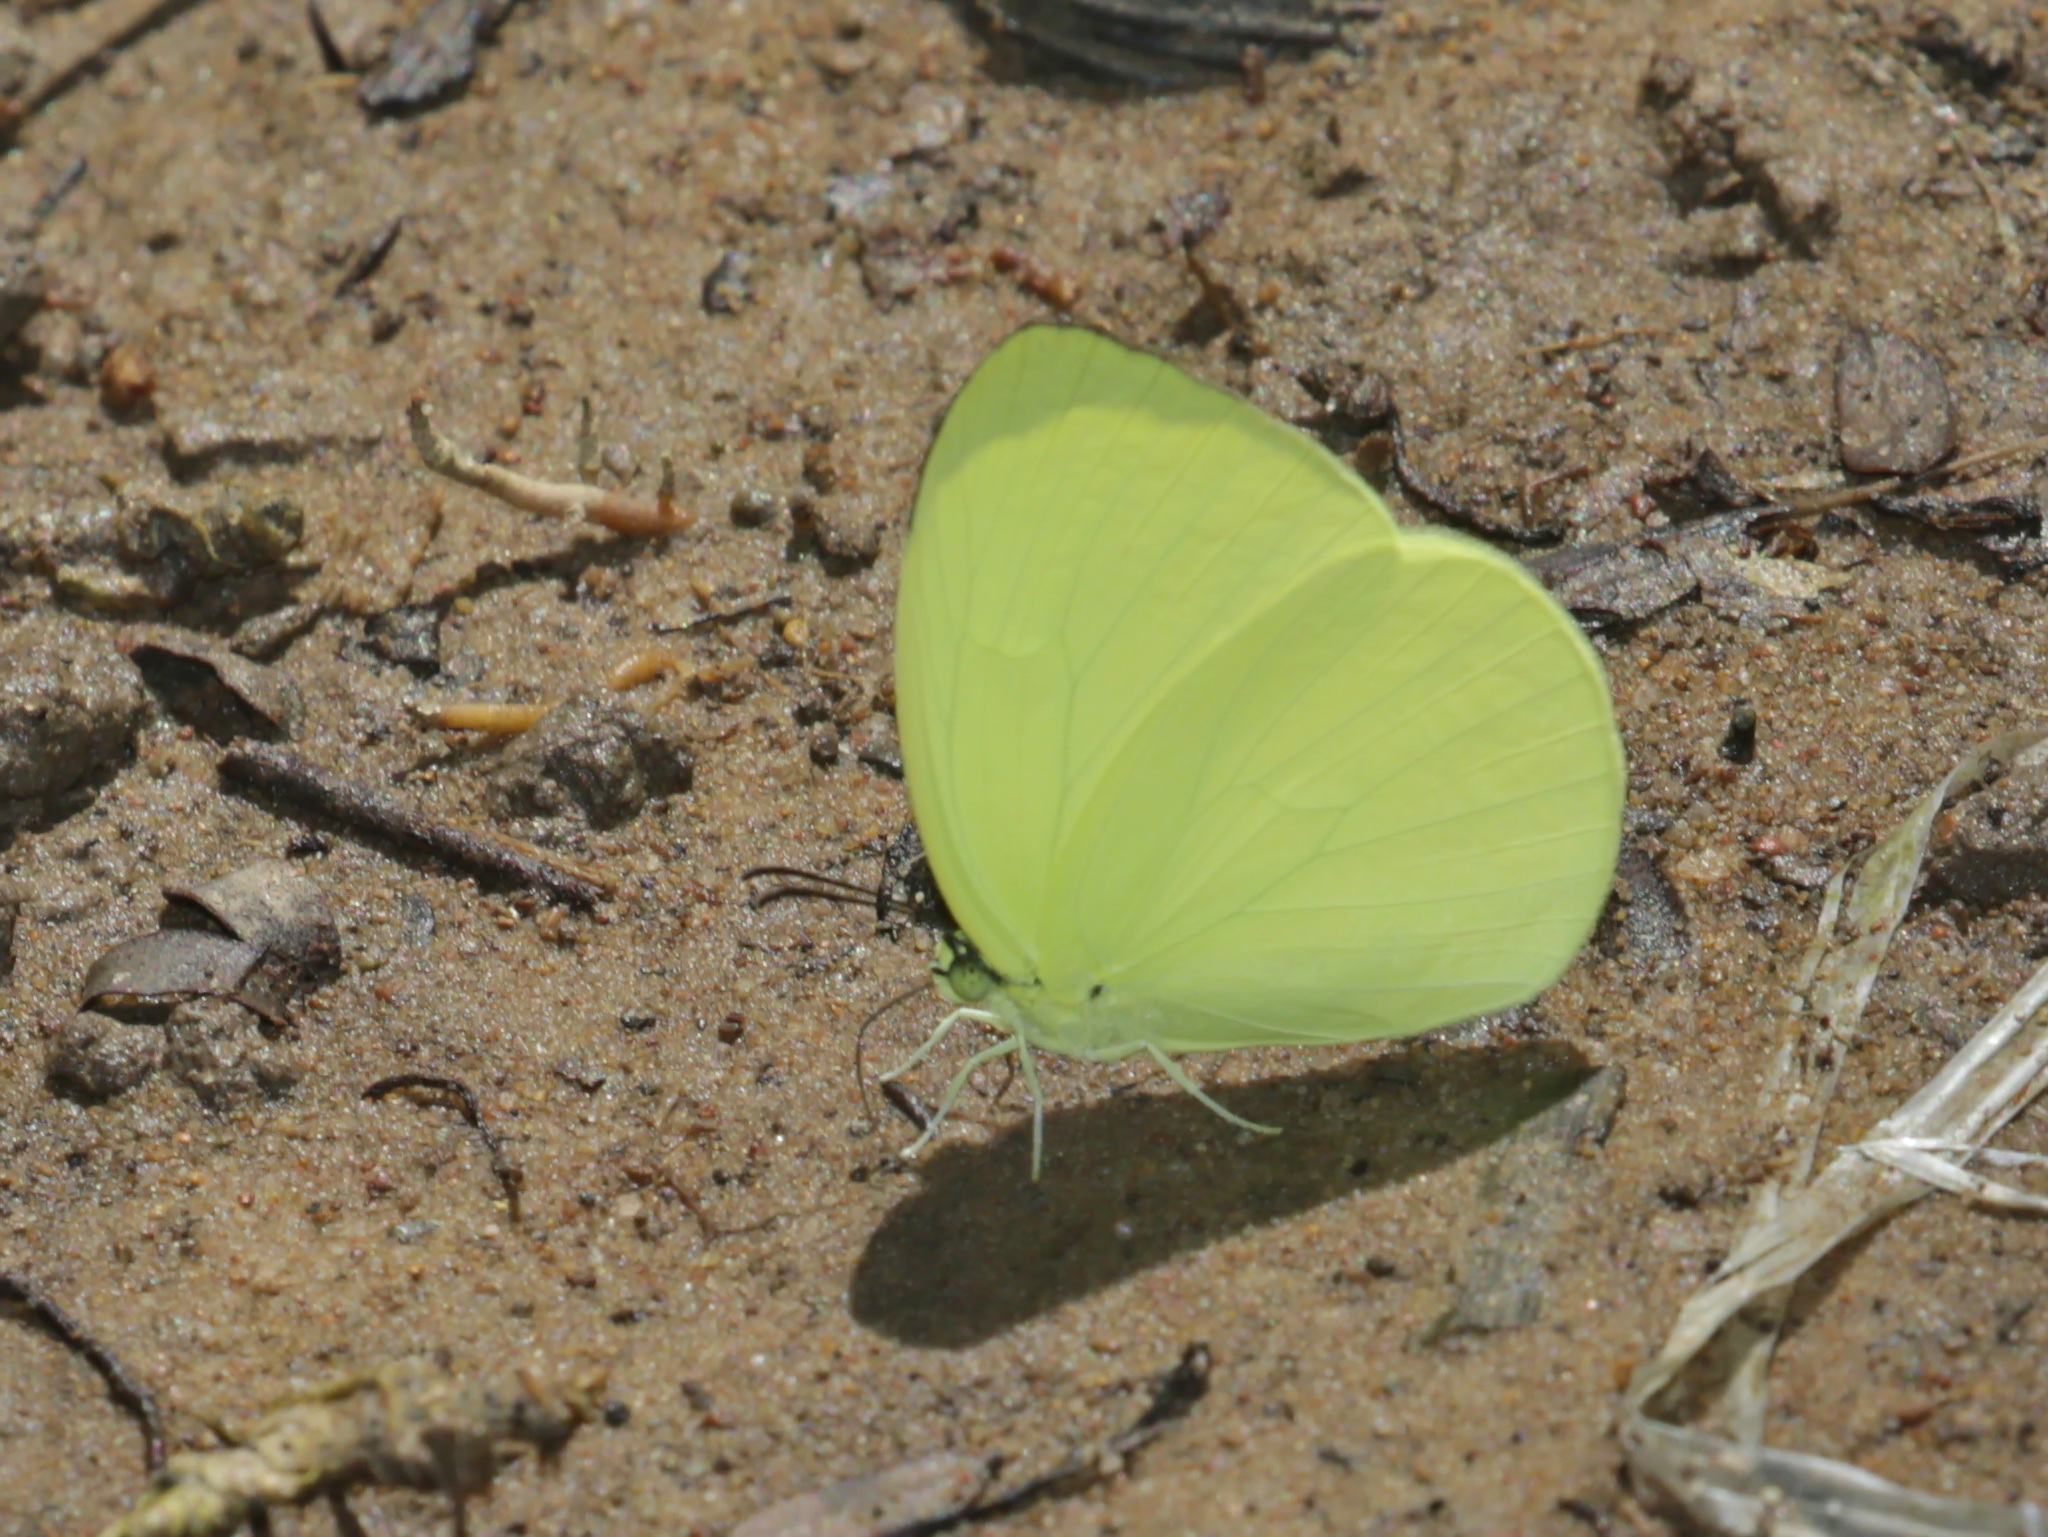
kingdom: Animalia
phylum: Arthropoda
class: Insecta
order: Lepidoptera
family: Pieridae
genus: Gandaca
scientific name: Gandaca harina
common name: Tree yellow
